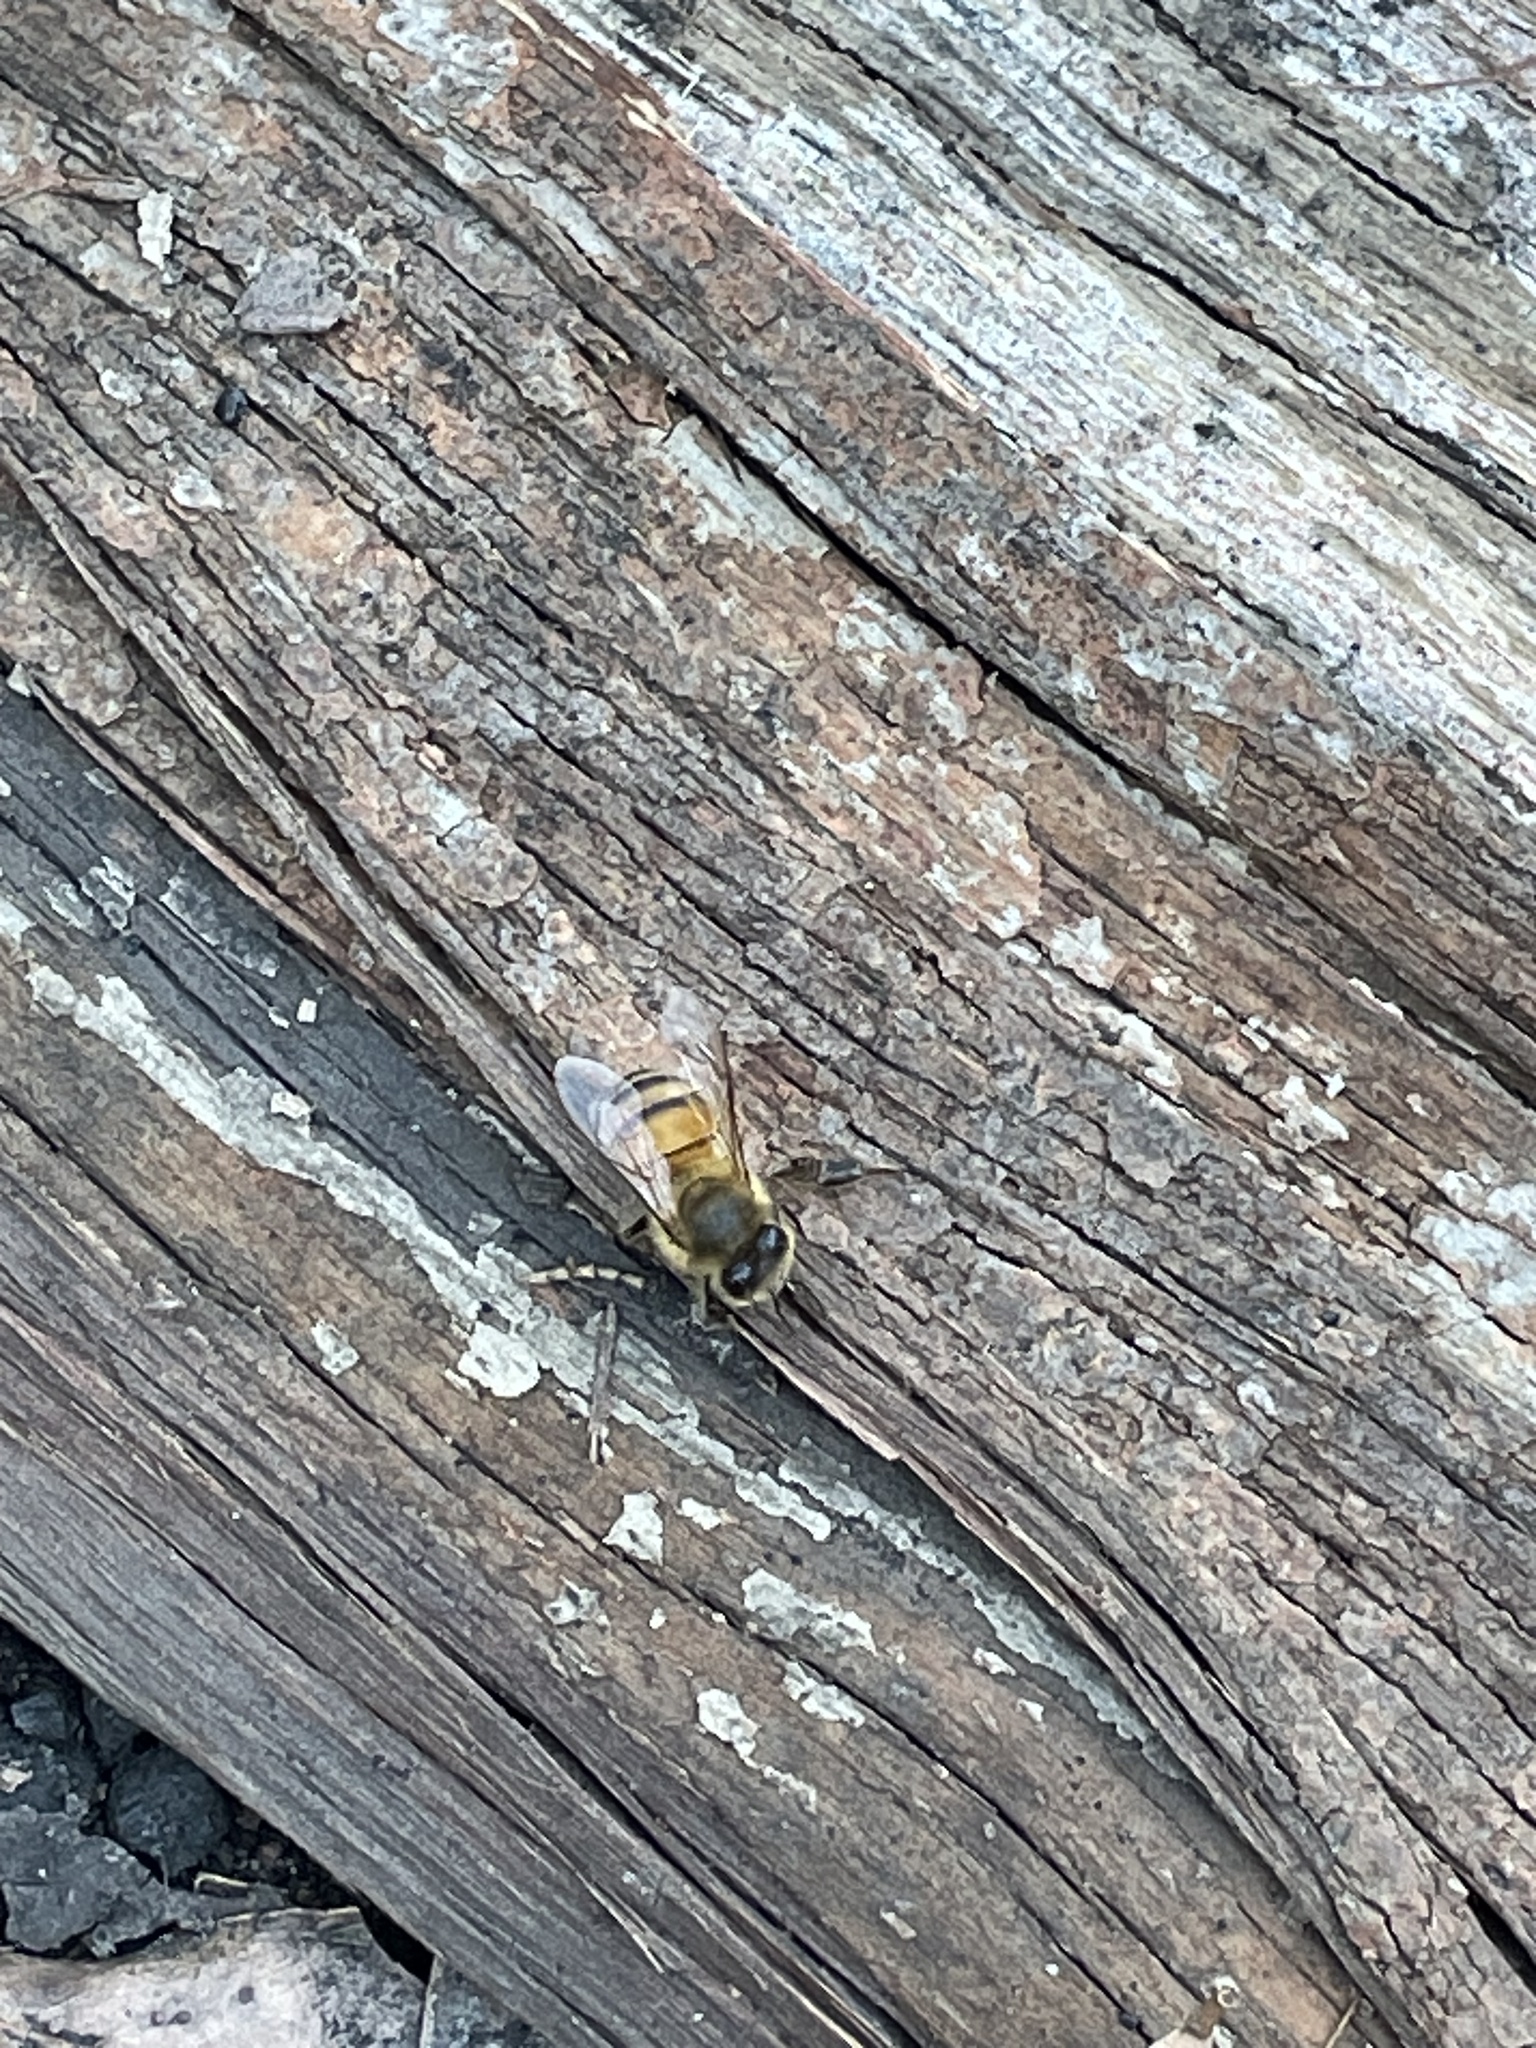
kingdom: Animalia
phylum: Arthropoda
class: Insecta
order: Hymenoptera
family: Apidae
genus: Apis
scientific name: Apis mellifera
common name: Honey bee
